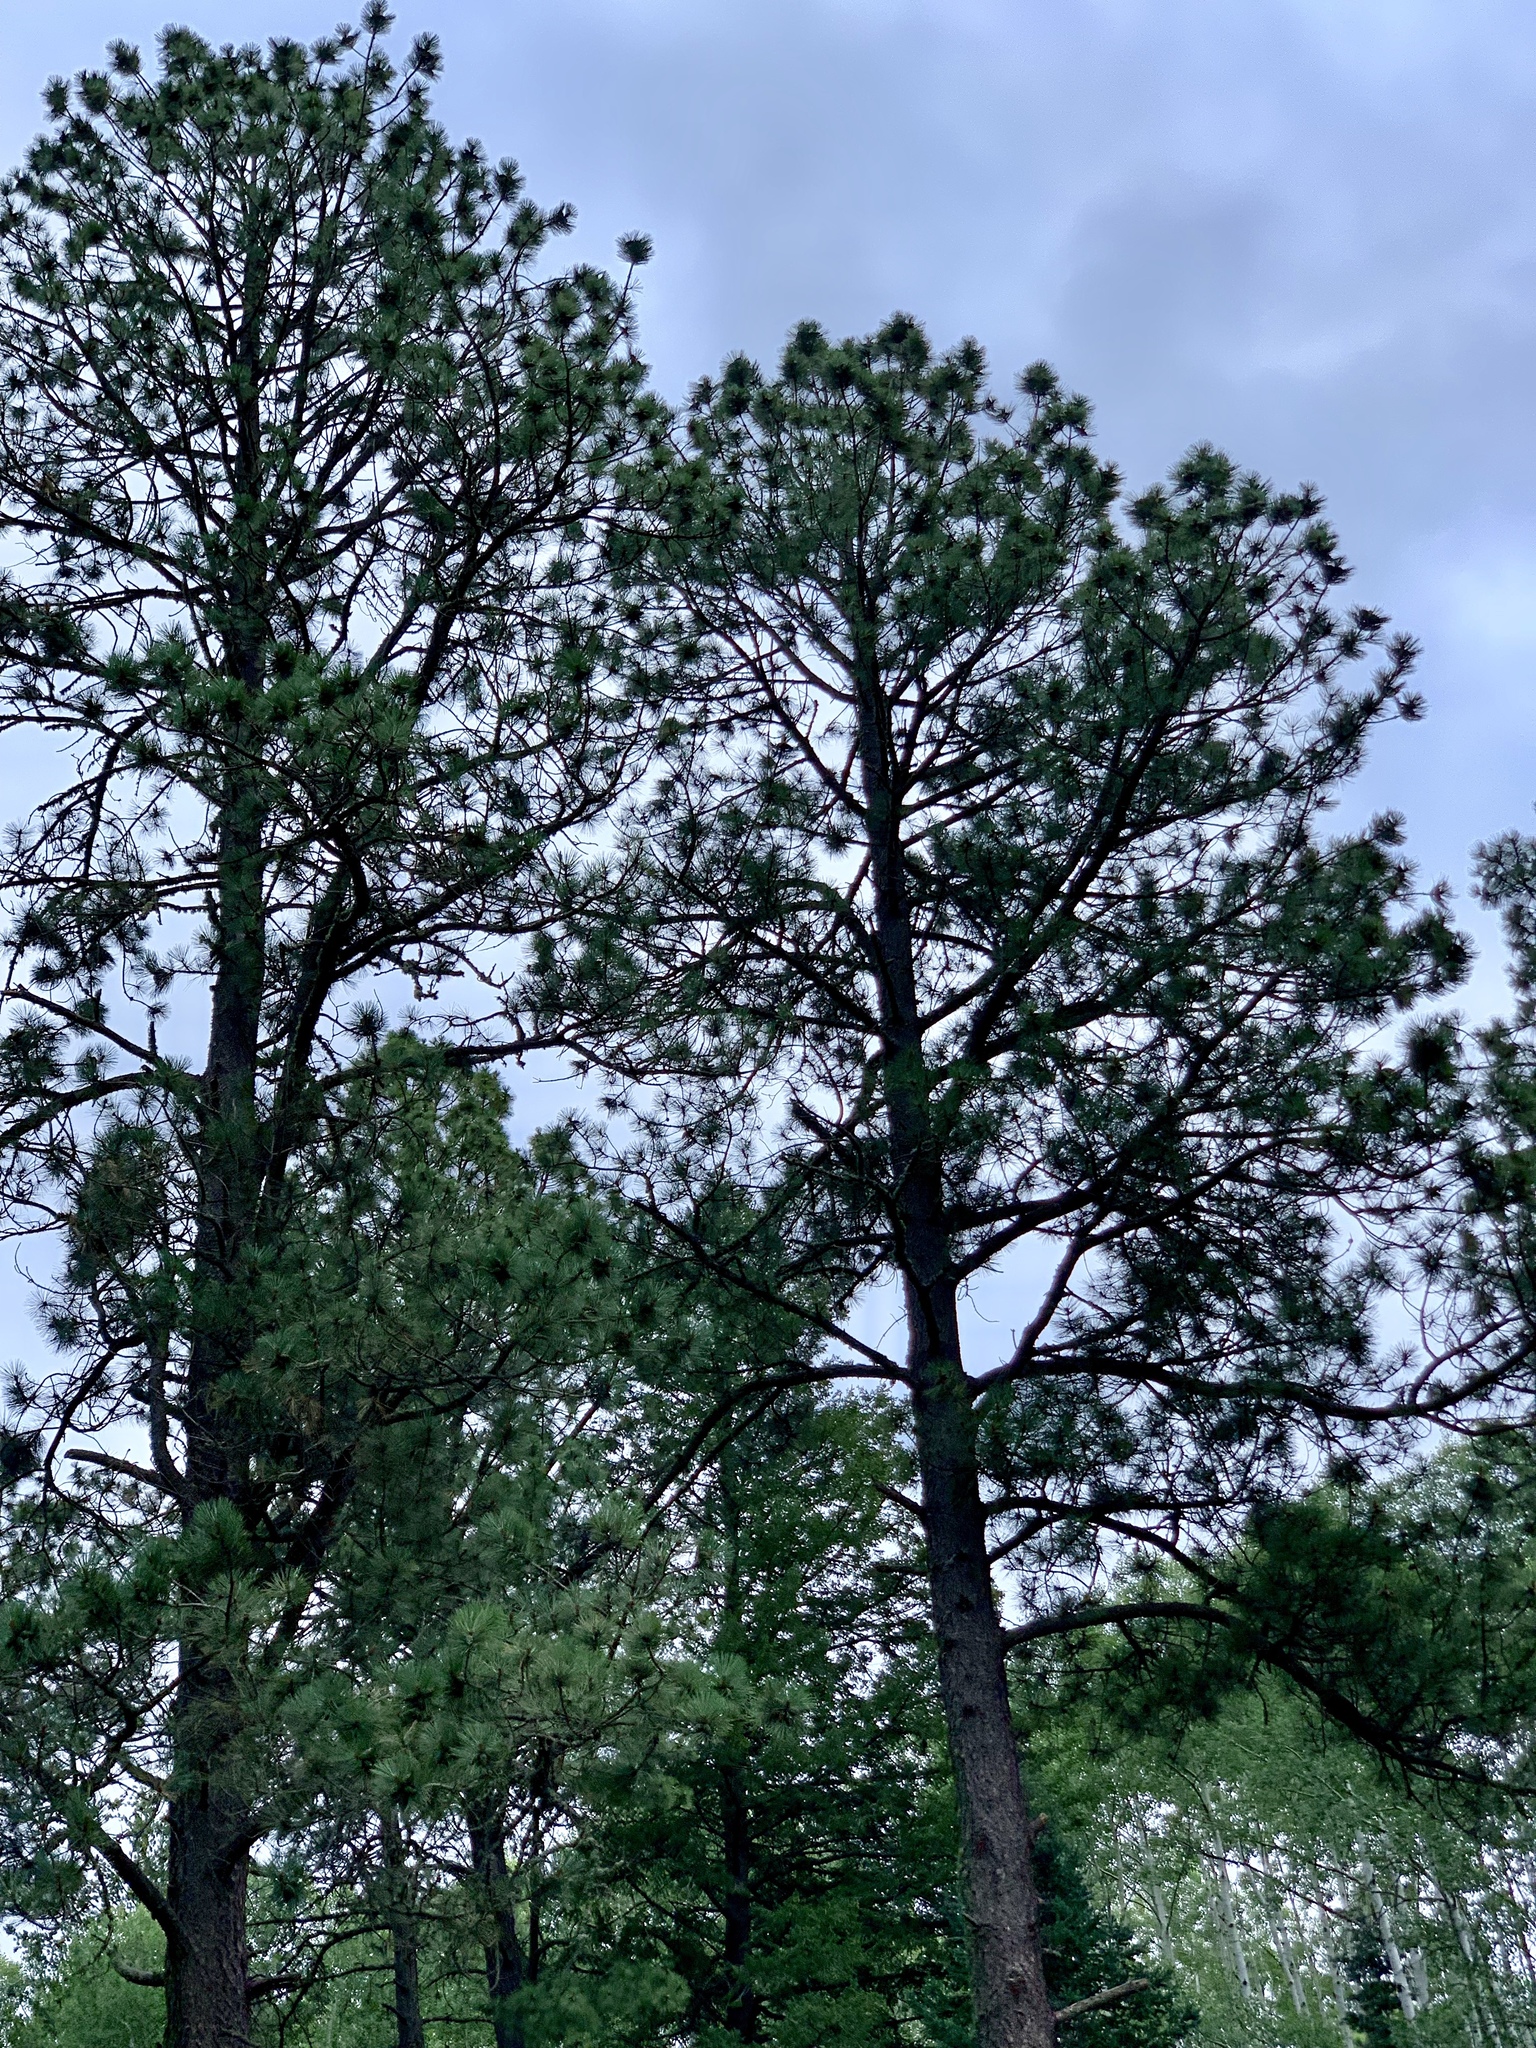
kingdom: Plantae
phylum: Tracheophyta
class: Pinopsida
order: Pinales
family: Pinaceae
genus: Pinus
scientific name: Pinus ponderosa
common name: Western yellow-pine
